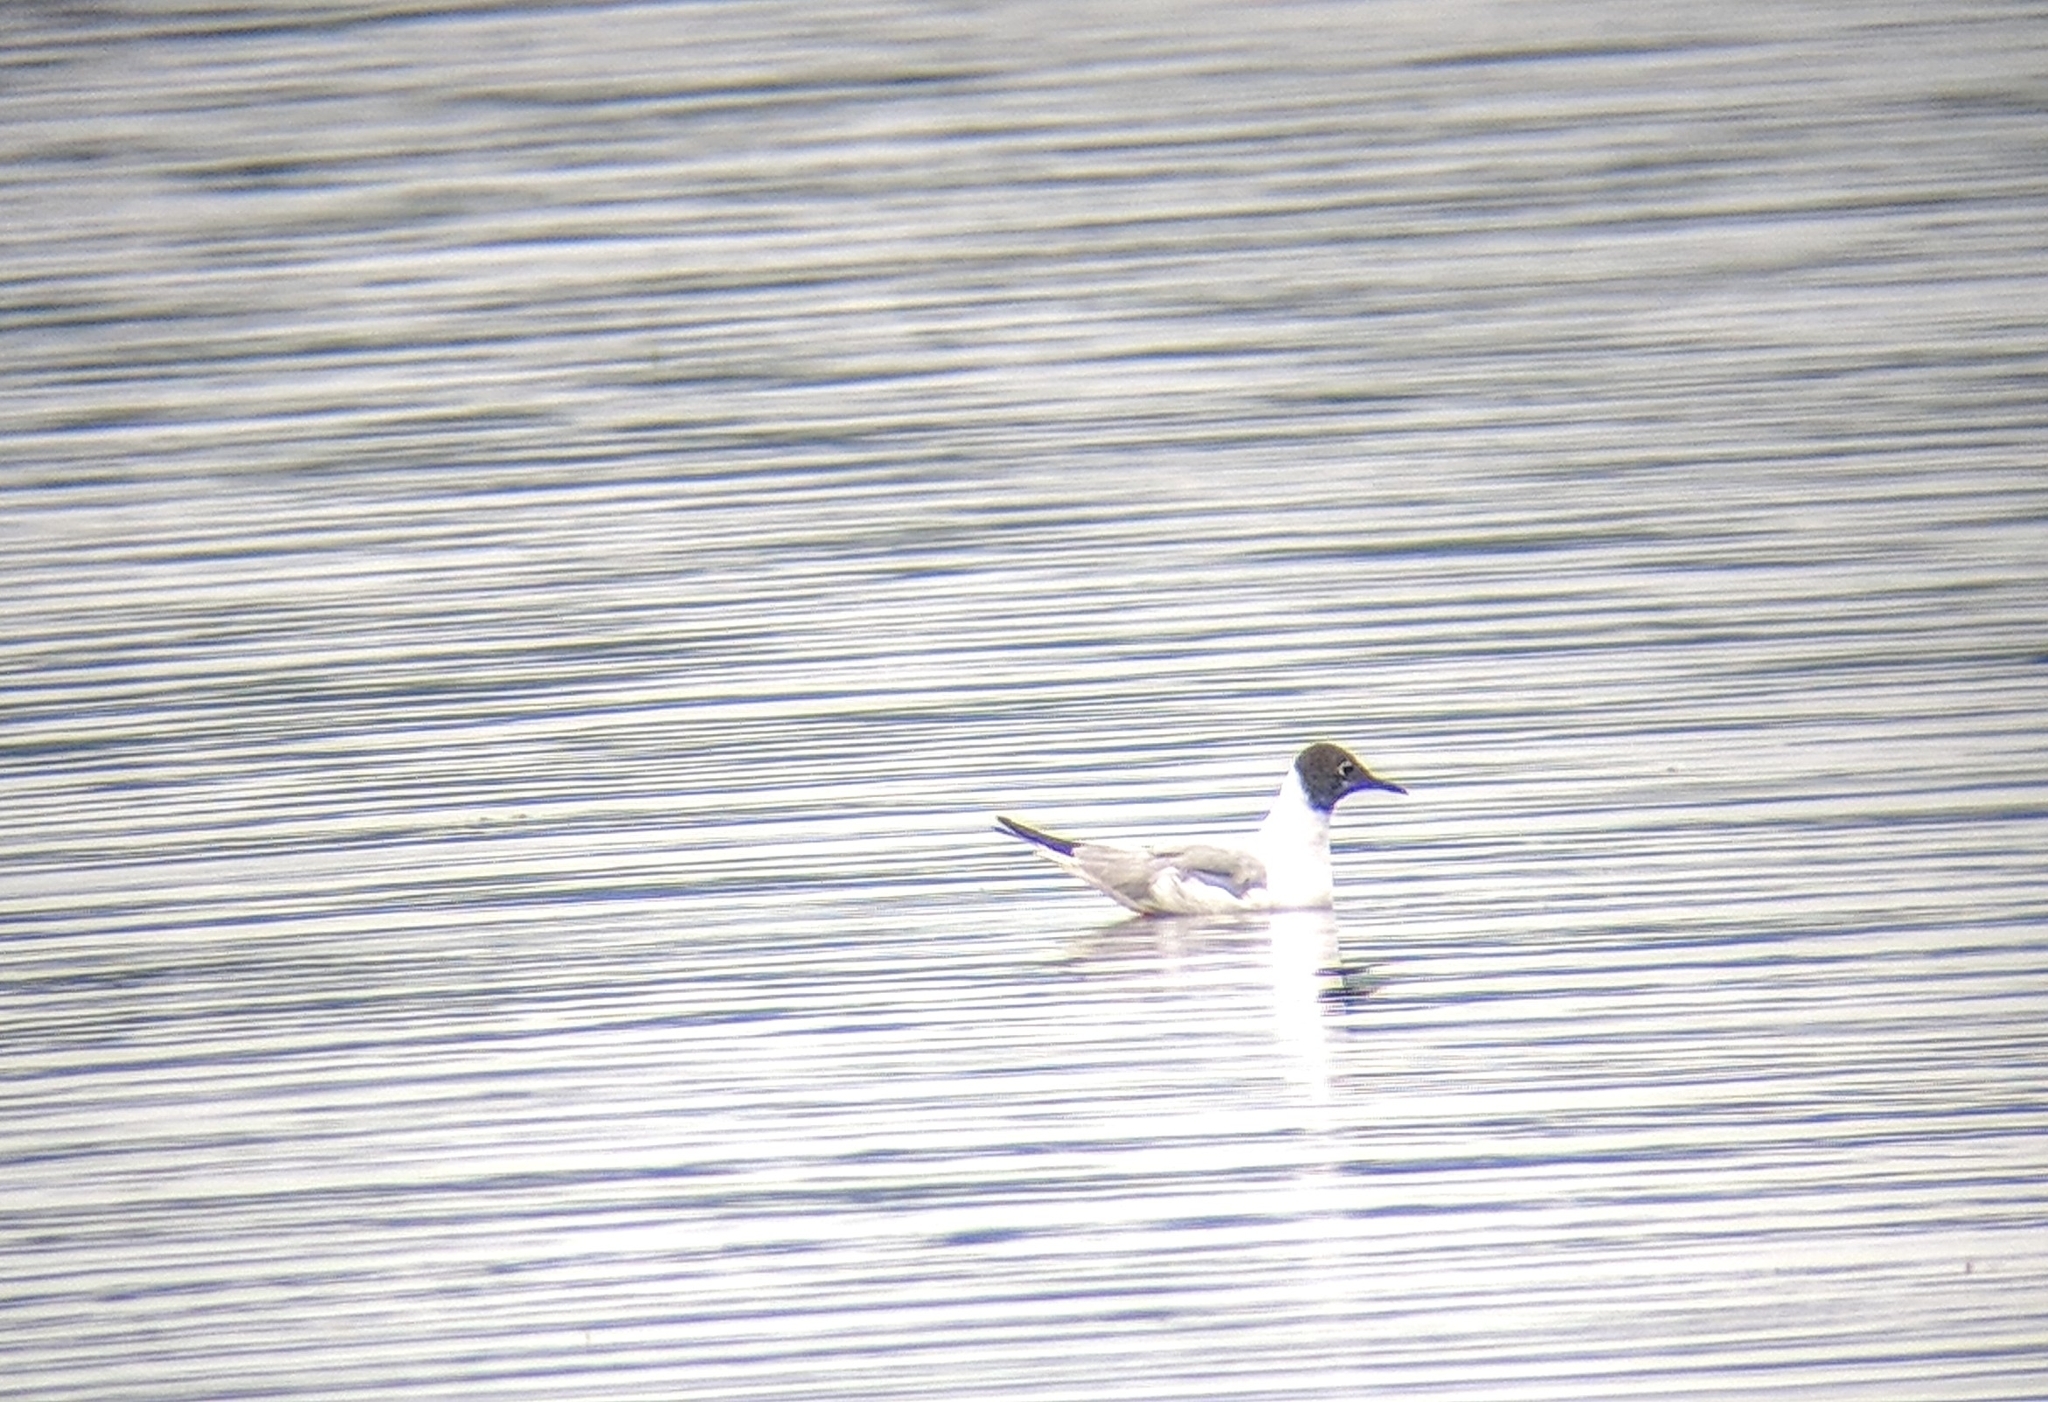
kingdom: Animalia
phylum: Chordata
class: Aves
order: Charadriiformes
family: Laridae
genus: Chroicocephalus
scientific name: Chroicocephalus philadelphia
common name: Bonaparte's gull
